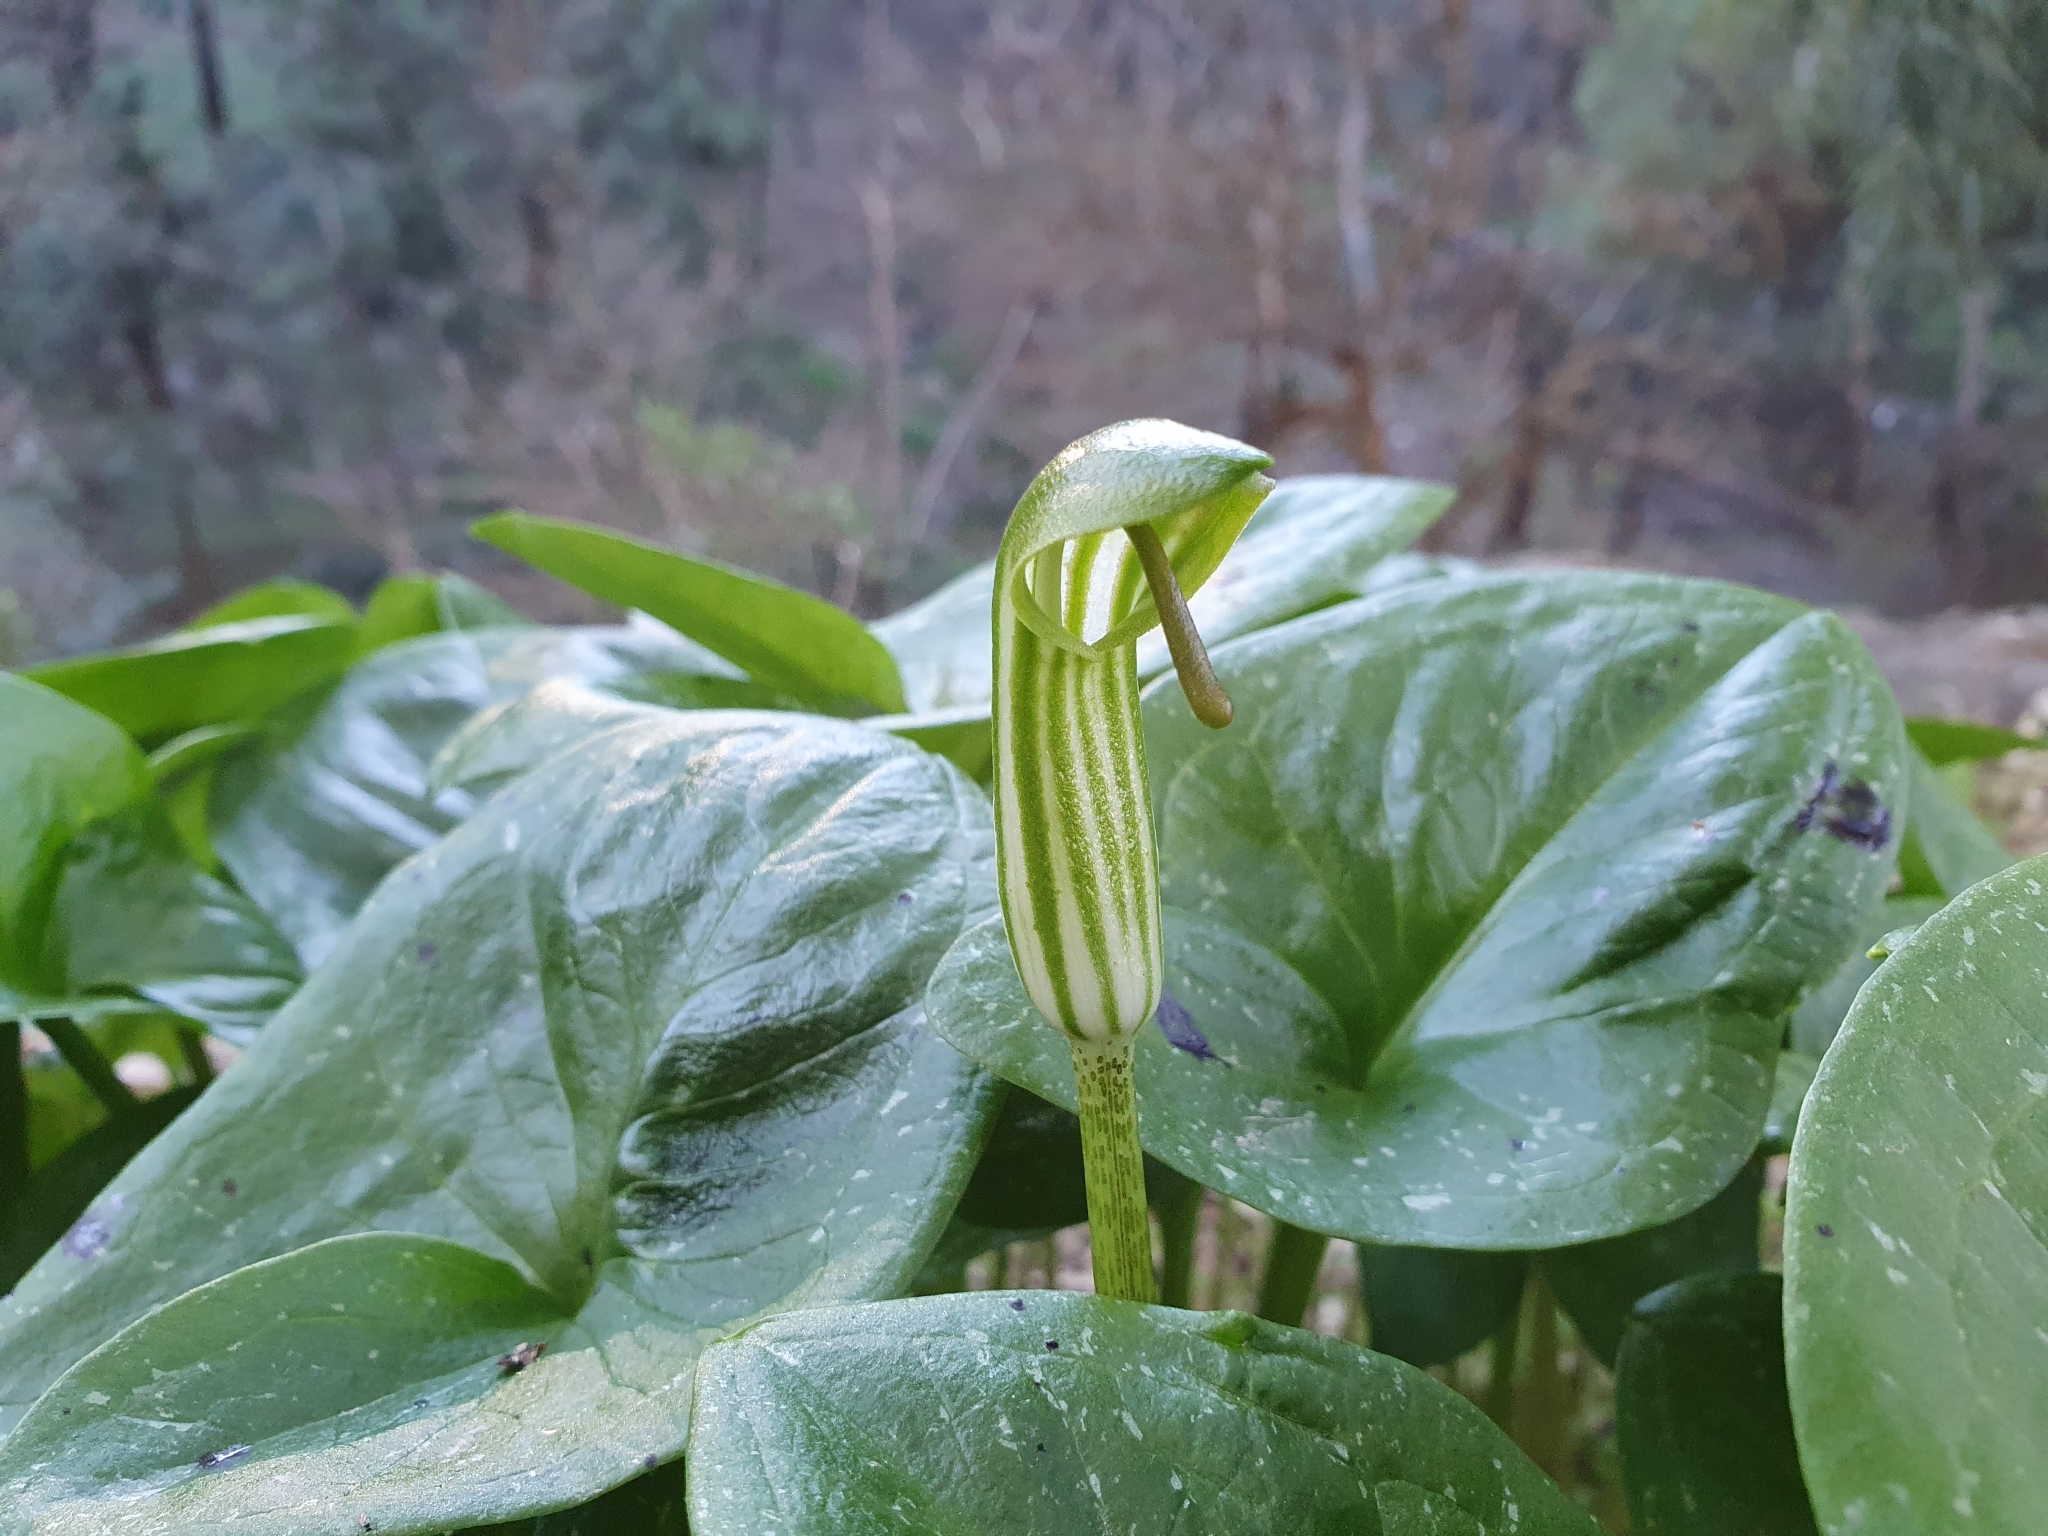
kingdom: Plantae
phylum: Tracheophyta
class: Liliopsida
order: Alismatales
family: Araceae
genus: Arisarum
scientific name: Arisarum vulgare
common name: Common arisarum
